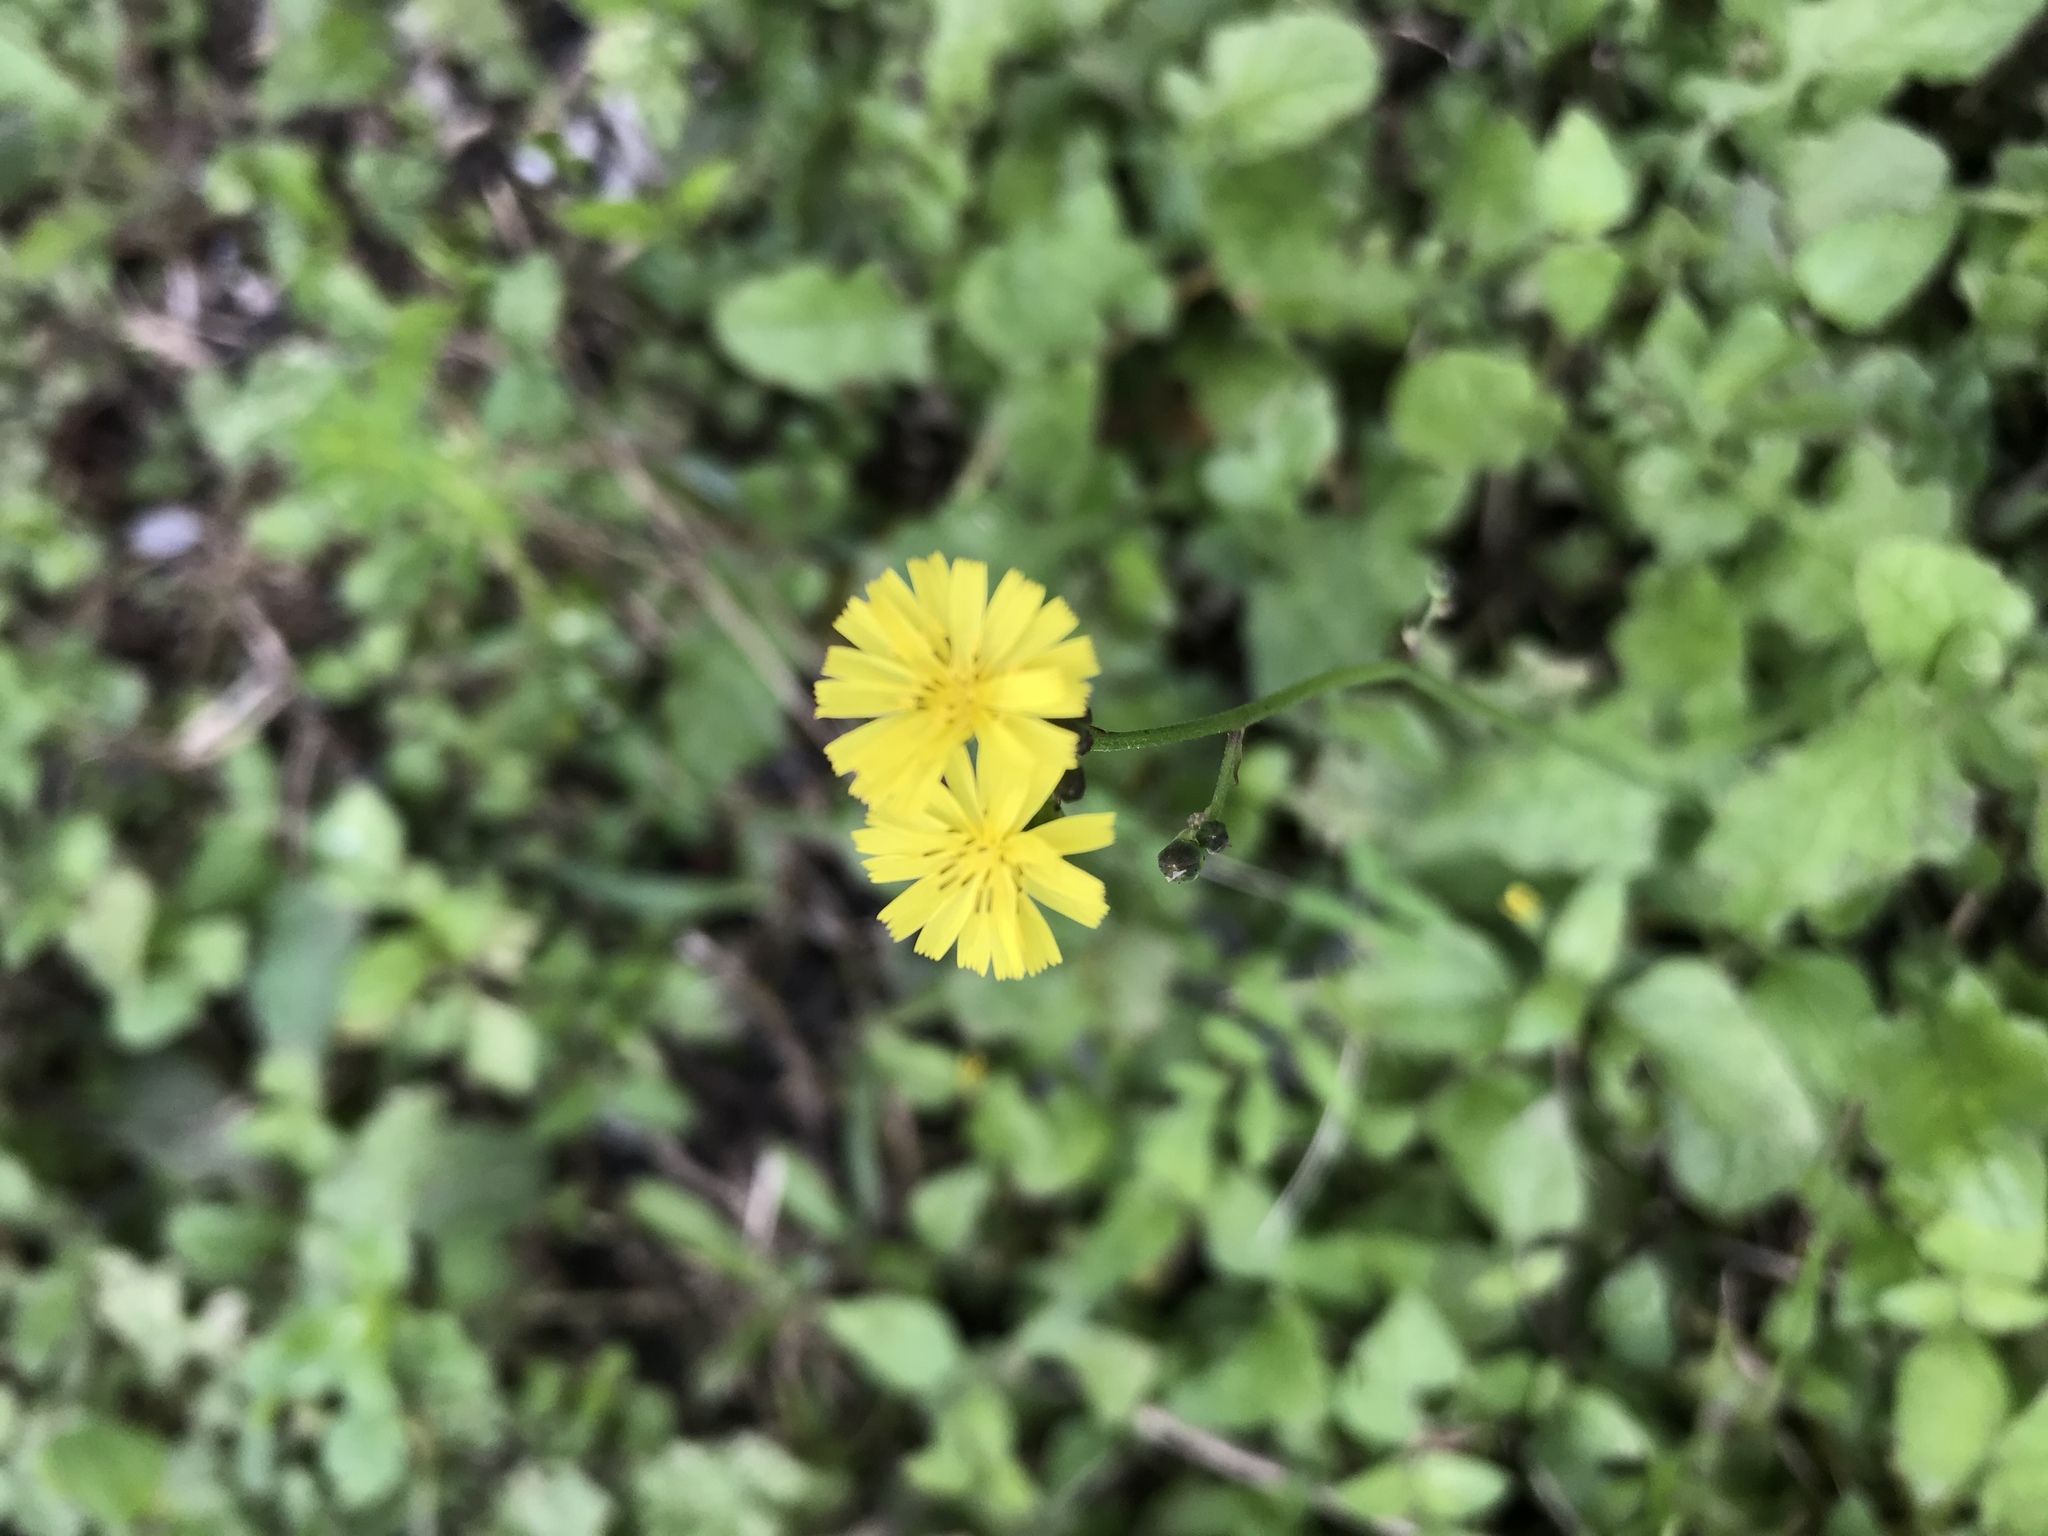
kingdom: Plantae
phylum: Tracheophyta
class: Magnoliopsida
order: Asterales
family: Asteraceae
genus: Youngia
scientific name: Youngia japonica
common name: Oriental false hawksbeard
